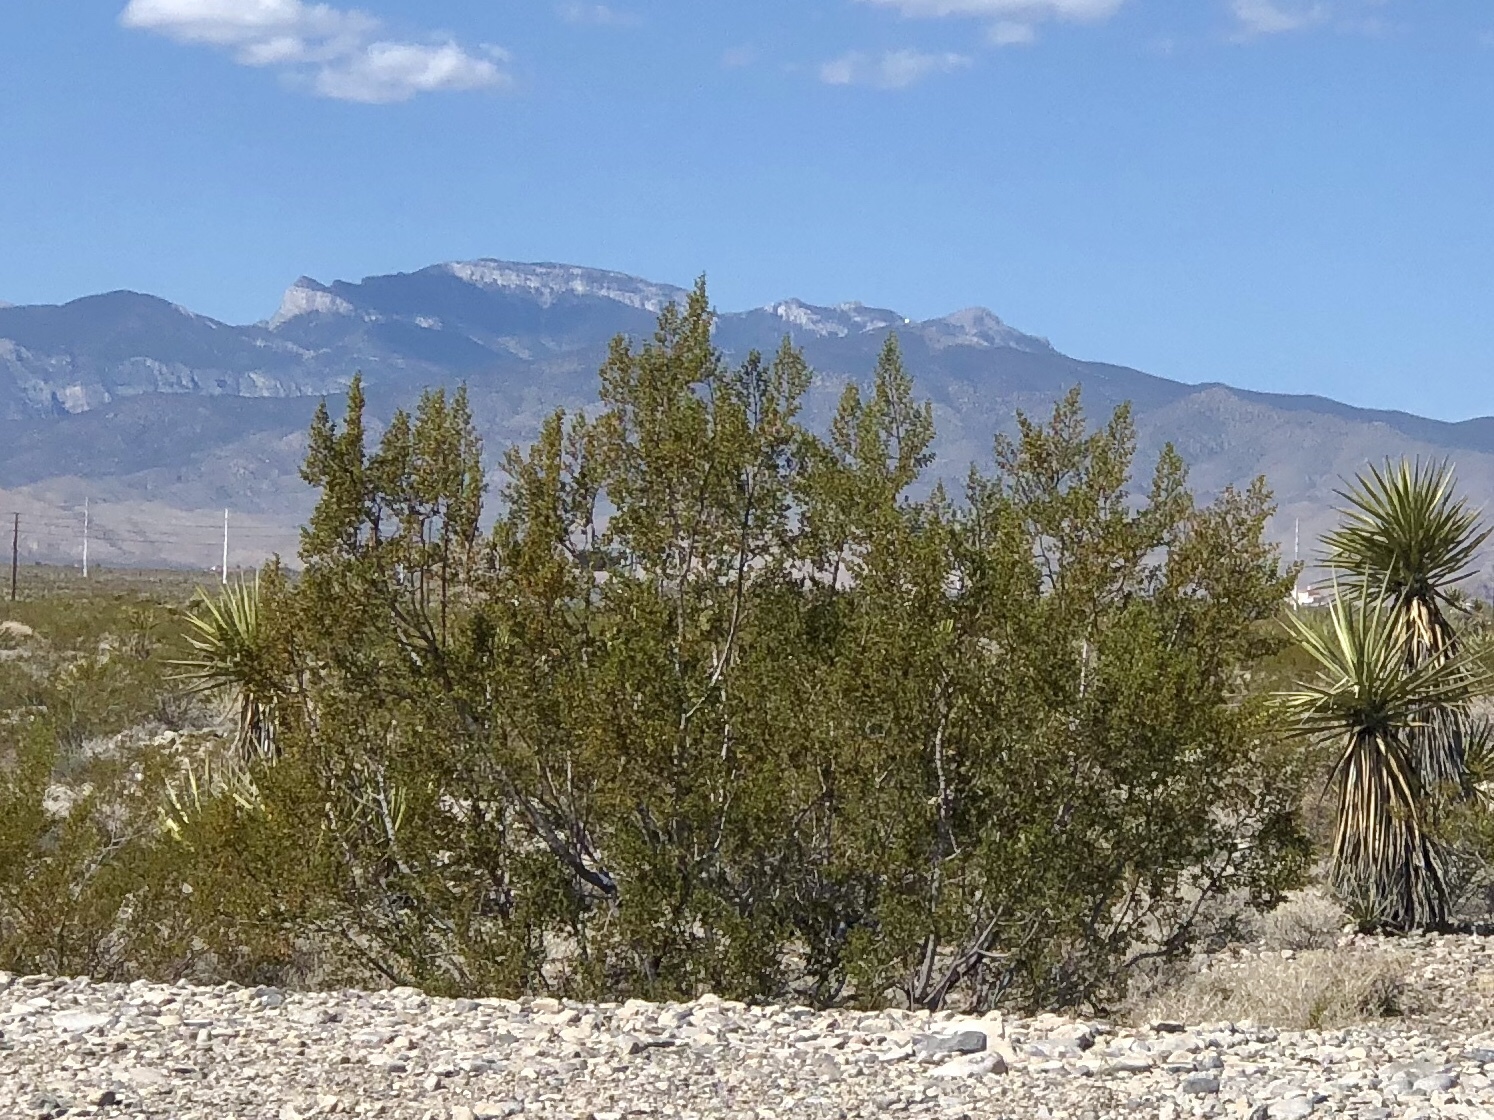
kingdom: Plantae
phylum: Tracheophyta
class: Magnoliopsida
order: Zygophyllales
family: Zygophyllaceae
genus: Larrea
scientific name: Larrea tridentata
